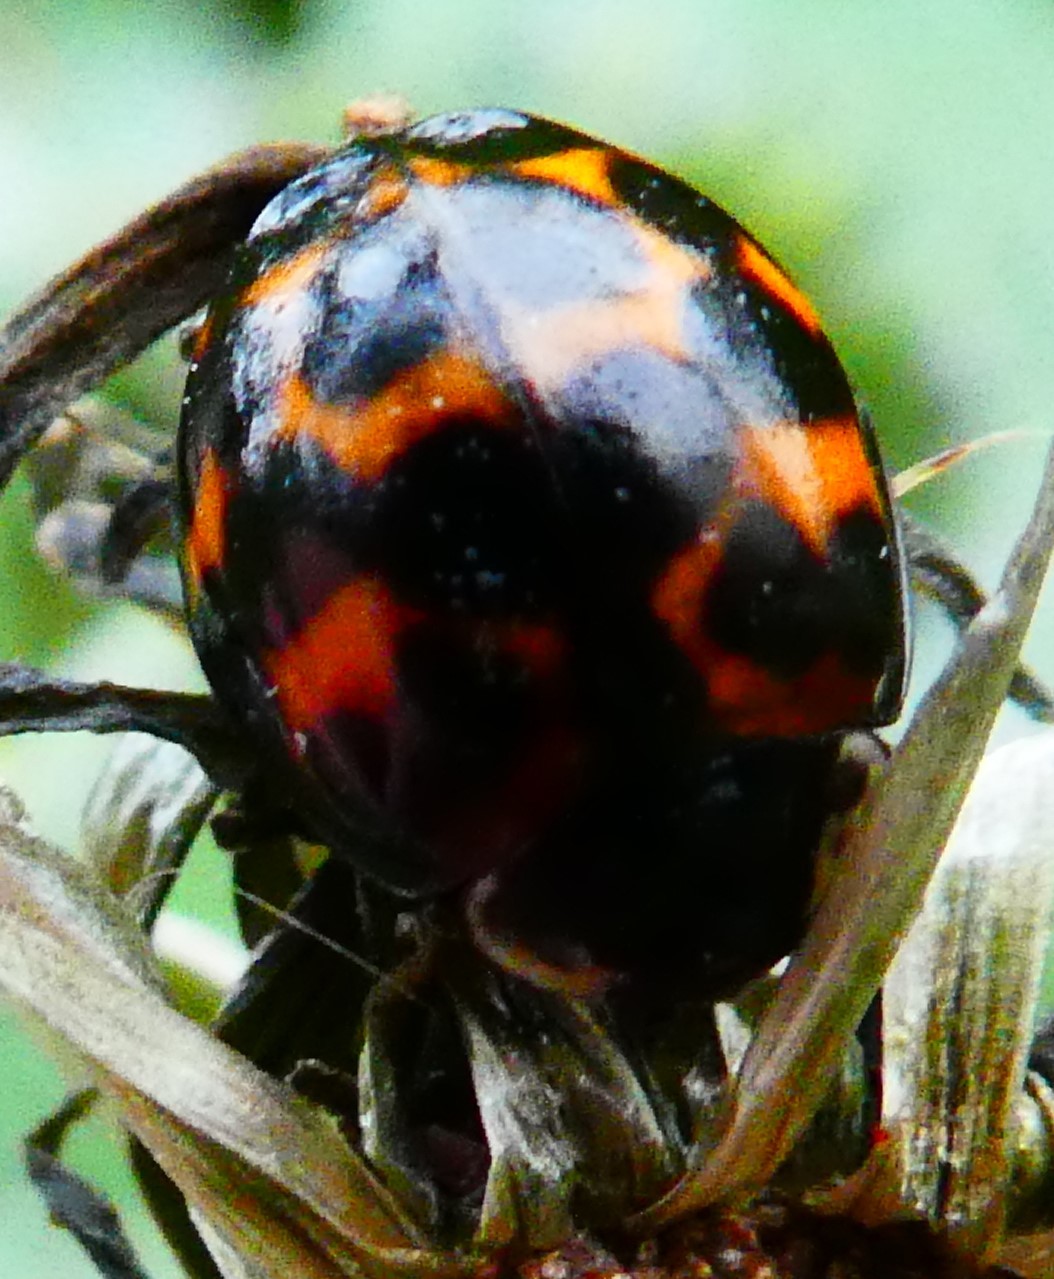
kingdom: Animalia
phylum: Arthropoda
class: Insecta
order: Coleoptera
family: Coccinellidae
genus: Harmonia
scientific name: Harmonia axyridis
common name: Harlequin ladybird
